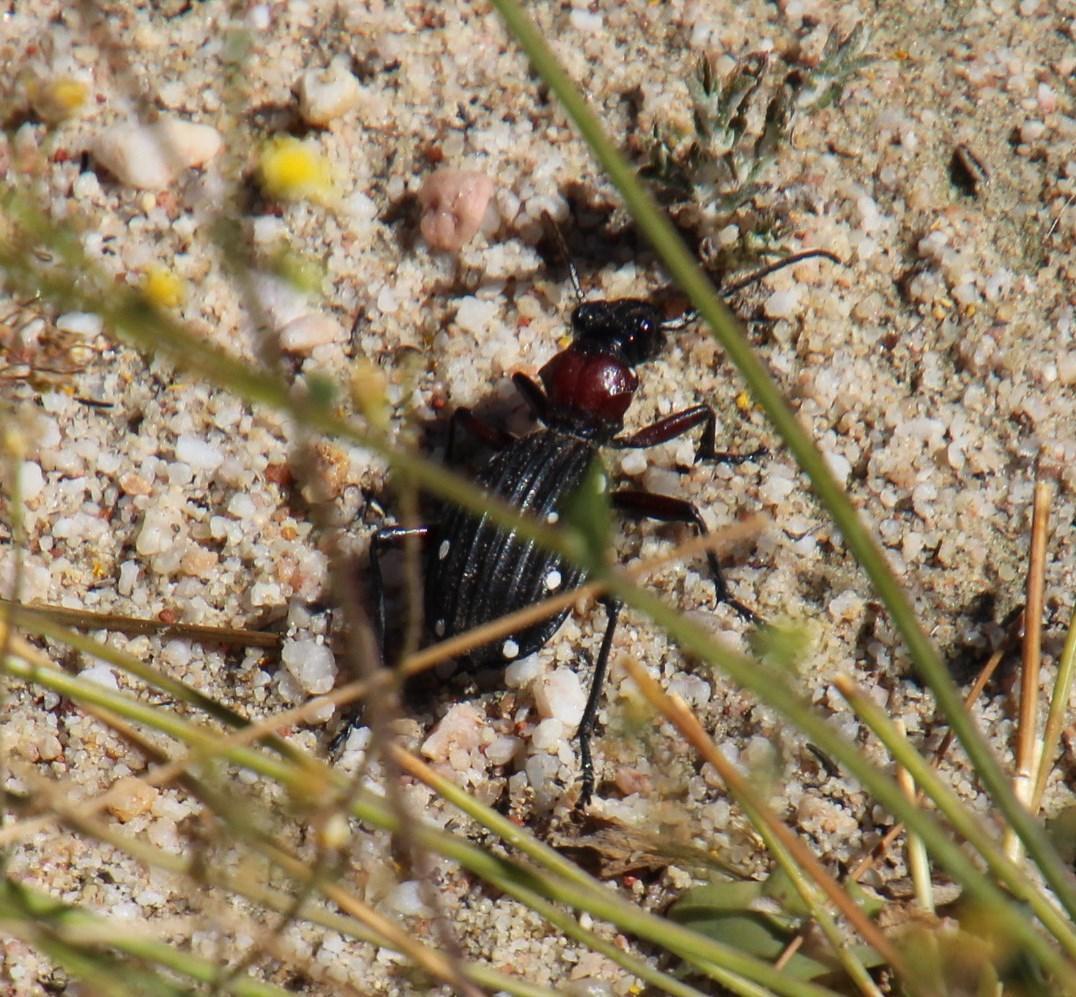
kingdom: Animalia
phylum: Arthropoda
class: Insecta
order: Coleoptera
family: Carabidae
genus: Anthia
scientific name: Anthia decemguttata
